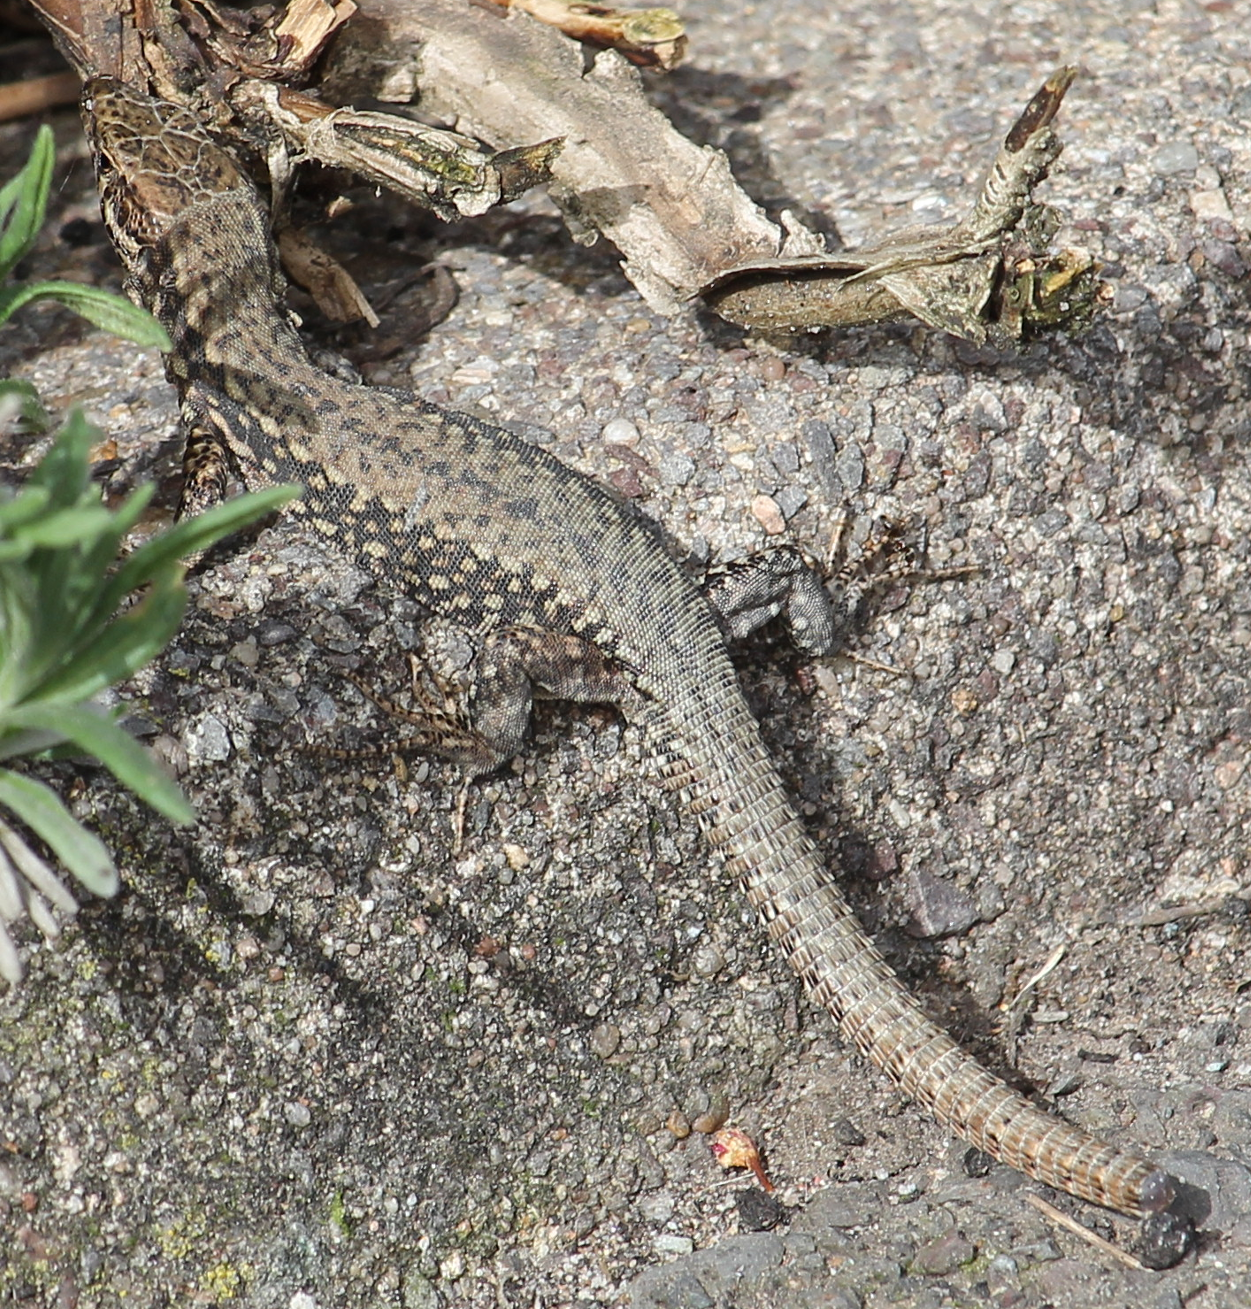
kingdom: Animalia
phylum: Chordata
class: Squamata
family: Lacertidae
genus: Podarcis
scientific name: Podarcis muralis
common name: Common wall lizard
